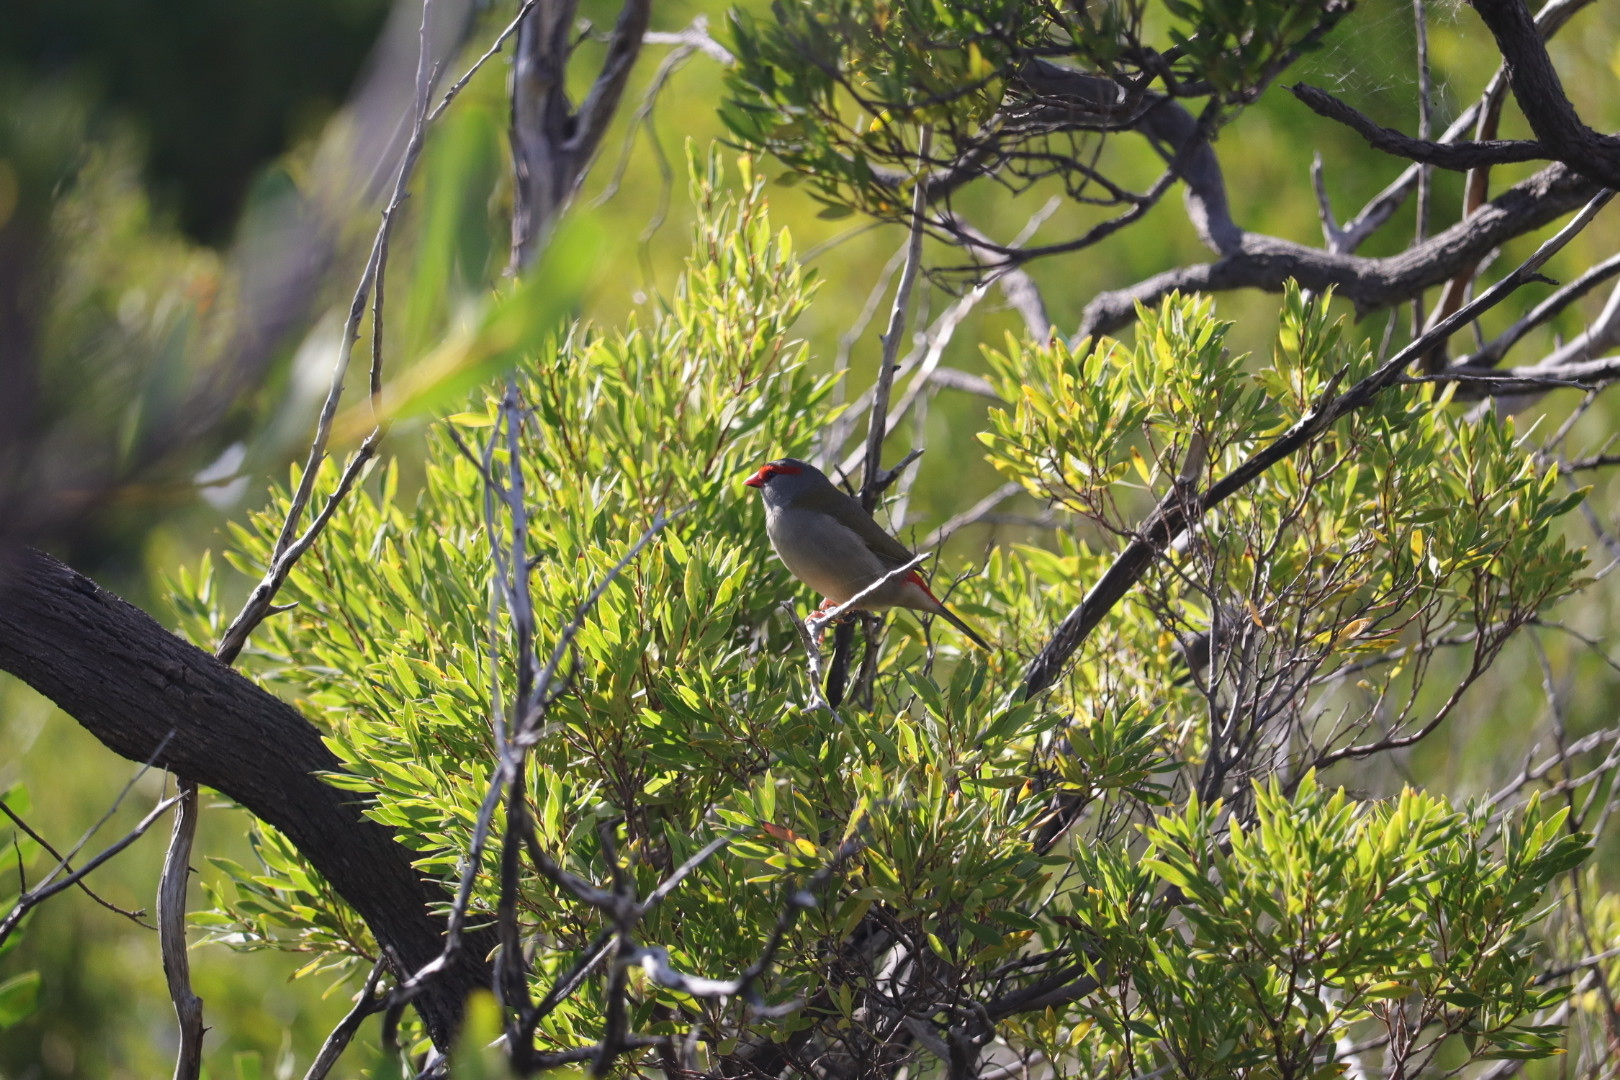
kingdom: Animalia
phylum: Chordata
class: Aves
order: Passeriformes
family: Estrildidae
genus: Neochmia
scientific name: Neochmia temporalis
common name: Red-browed finch
